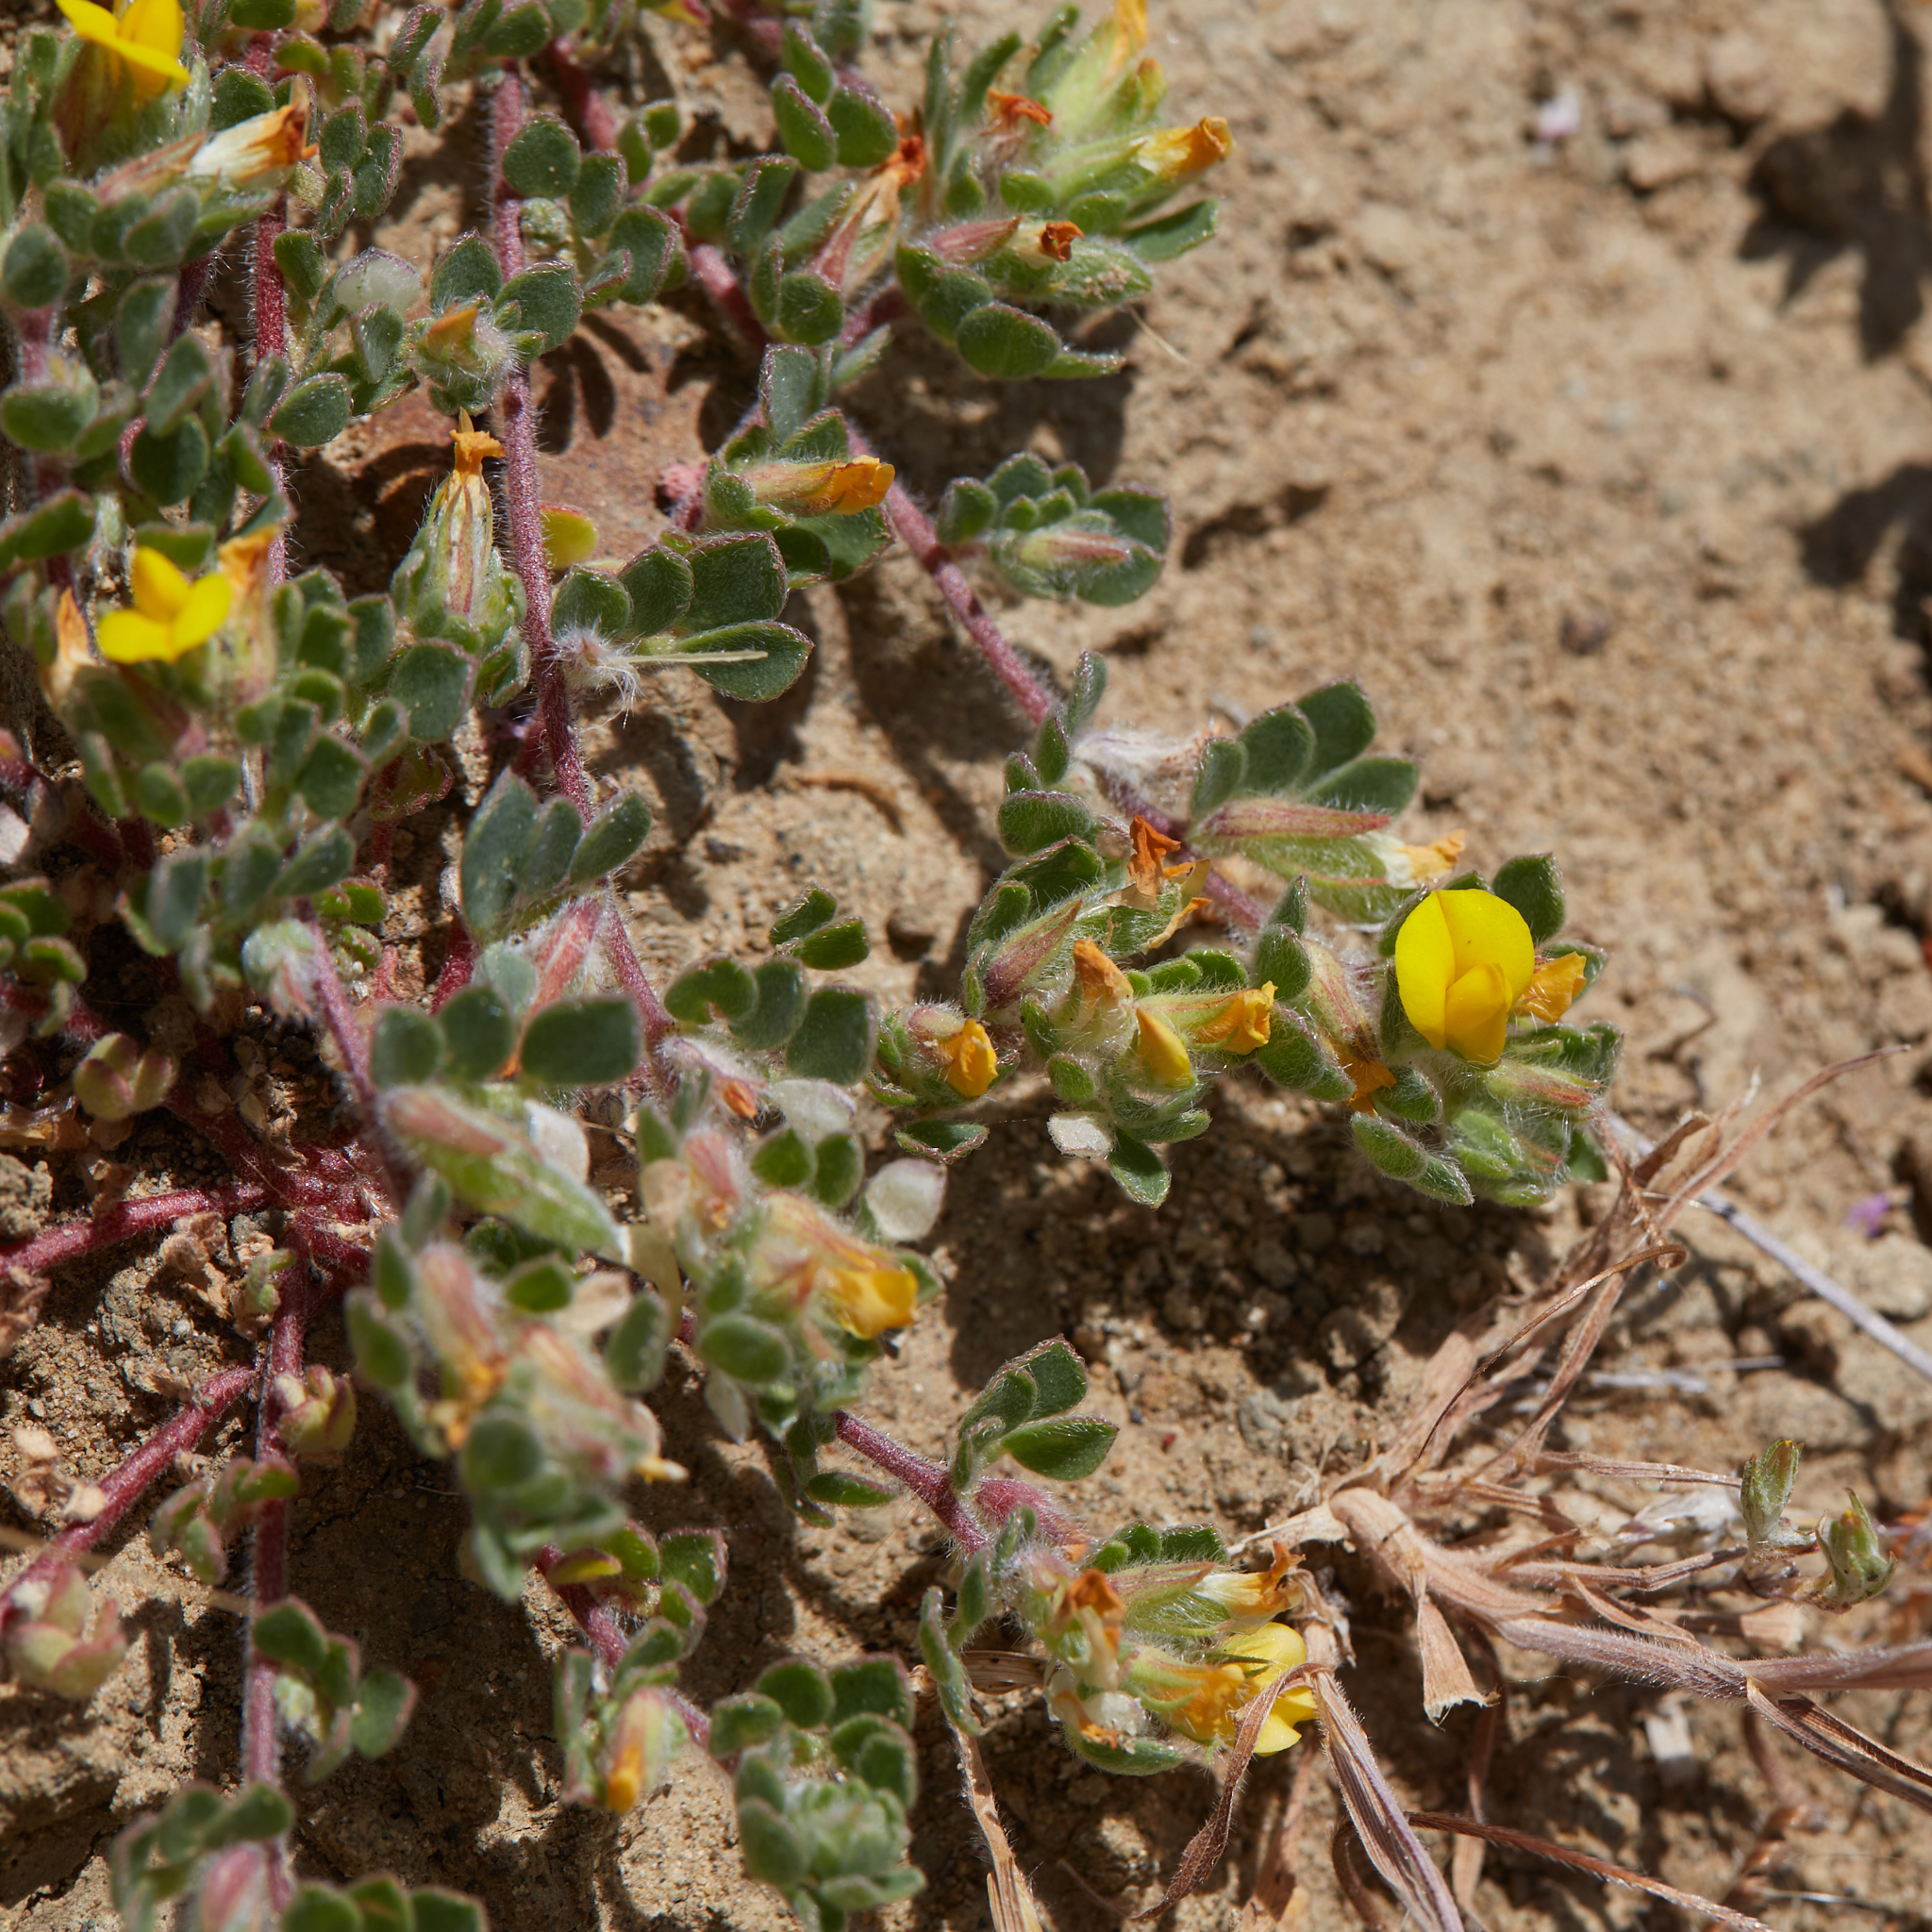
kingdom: Plantae
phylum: Tracheophyta
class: Magnoliopsida
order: Fabales
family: Fabaceae
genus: Acmispon
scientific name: Acmispon brachycarpus
